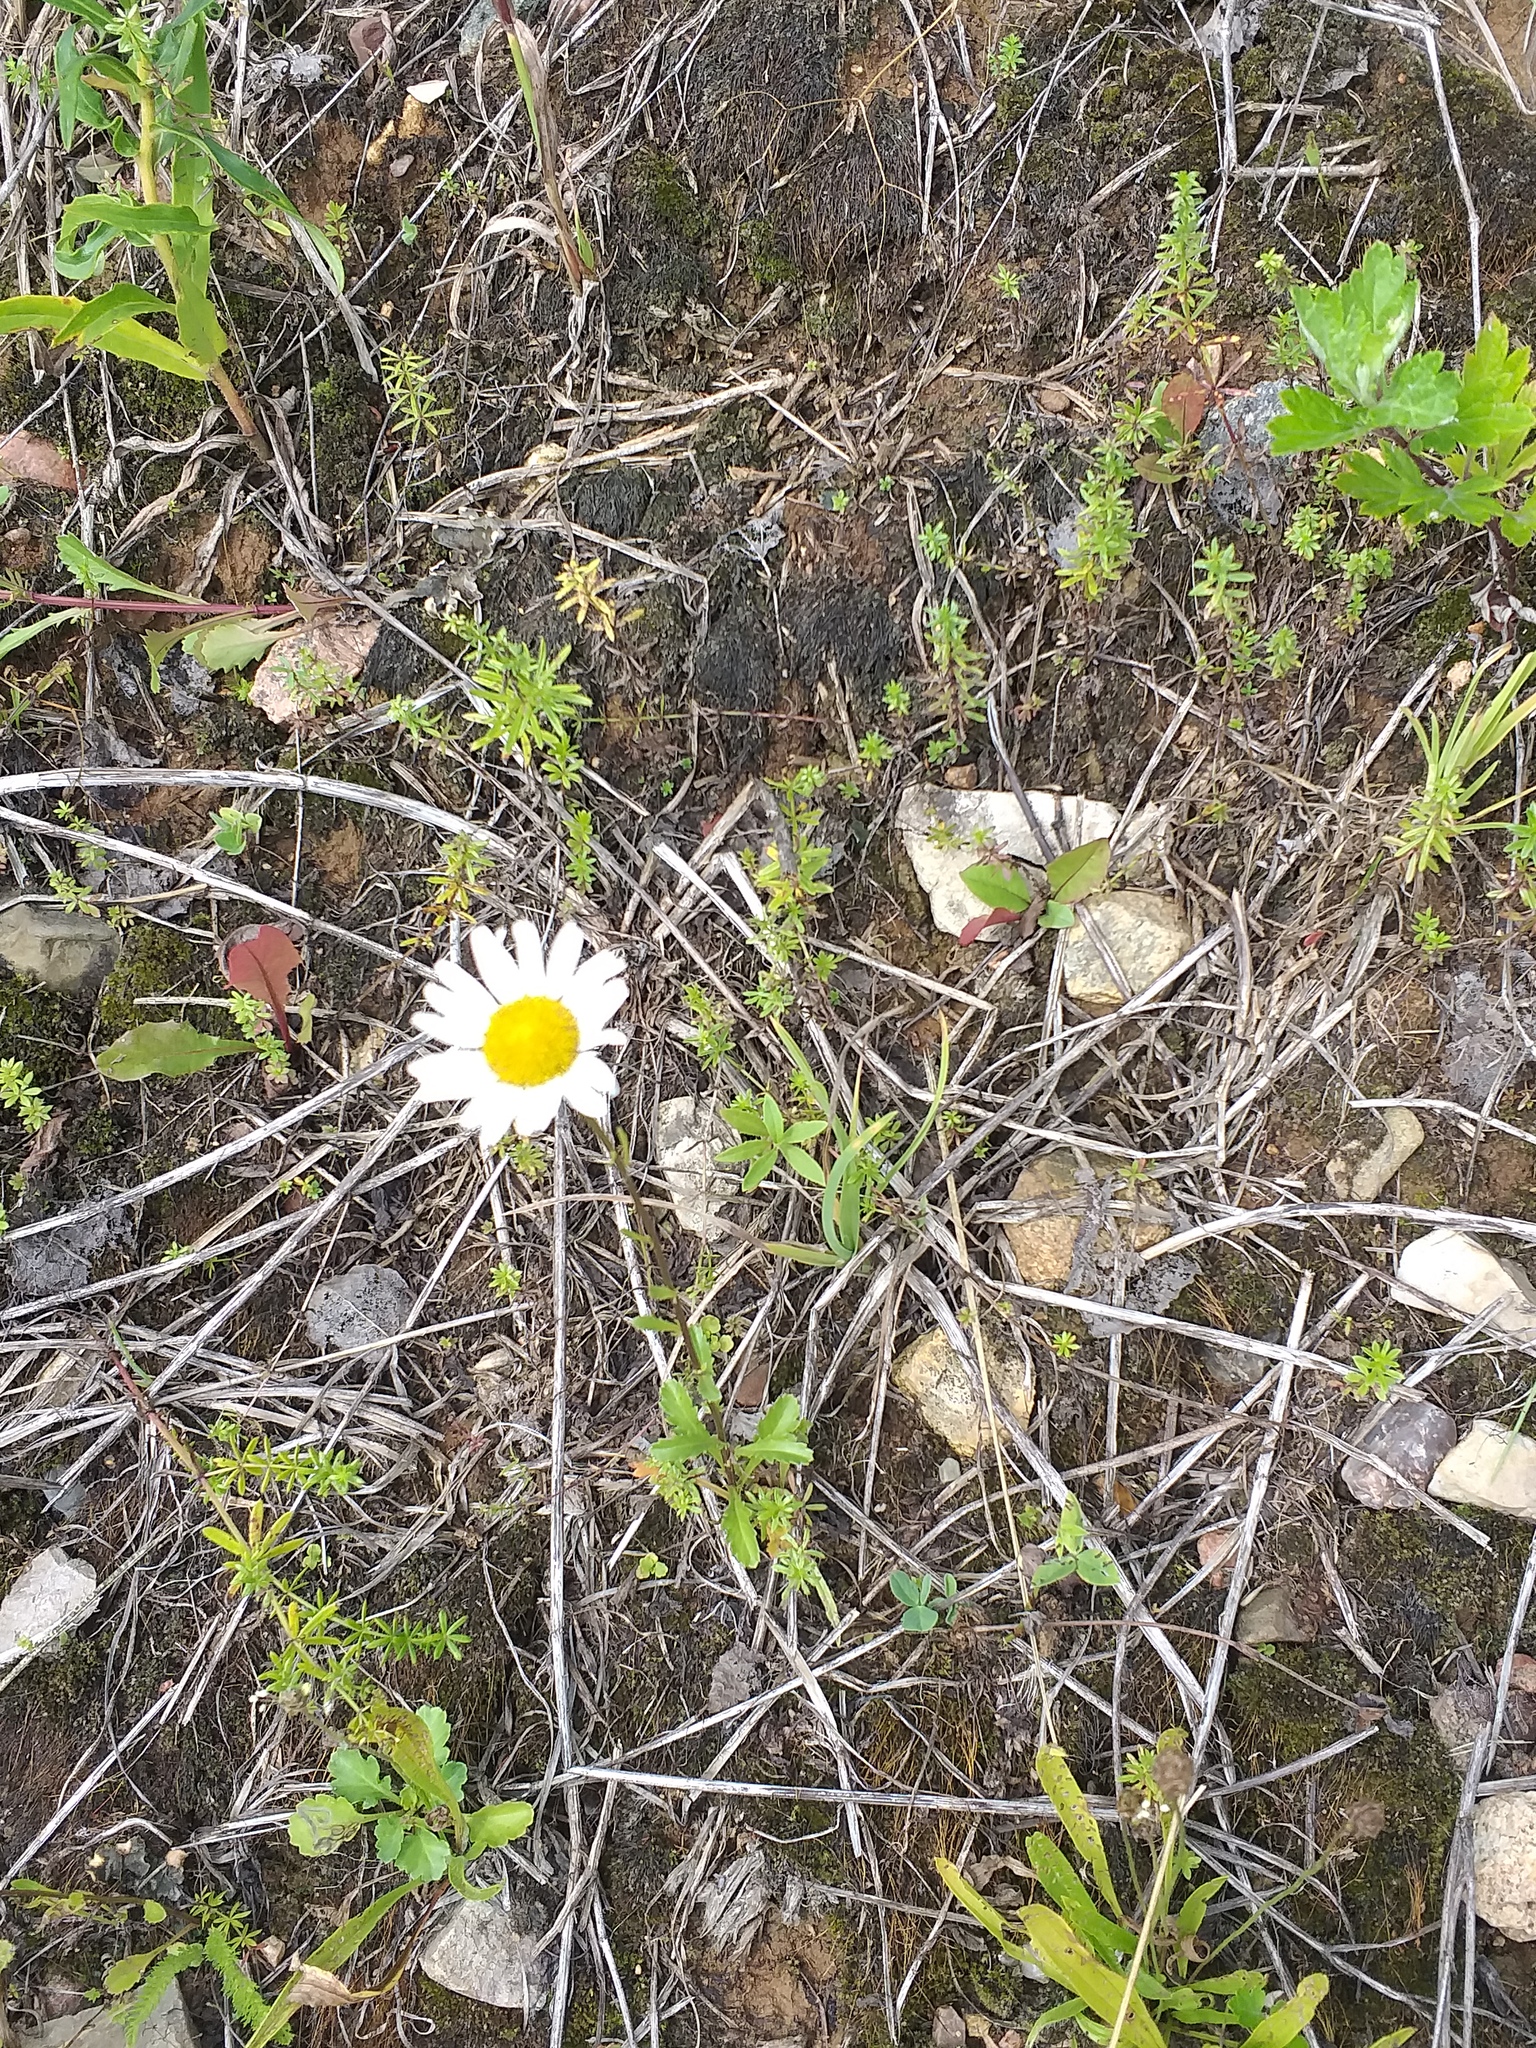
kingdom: Plantae
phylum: Tracheophyta
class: Magnoliopsida
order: Asterales
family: Asteraceae
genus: Leucanthemum
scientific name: Leucanthemum vulgare
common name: Oxeye daisy
